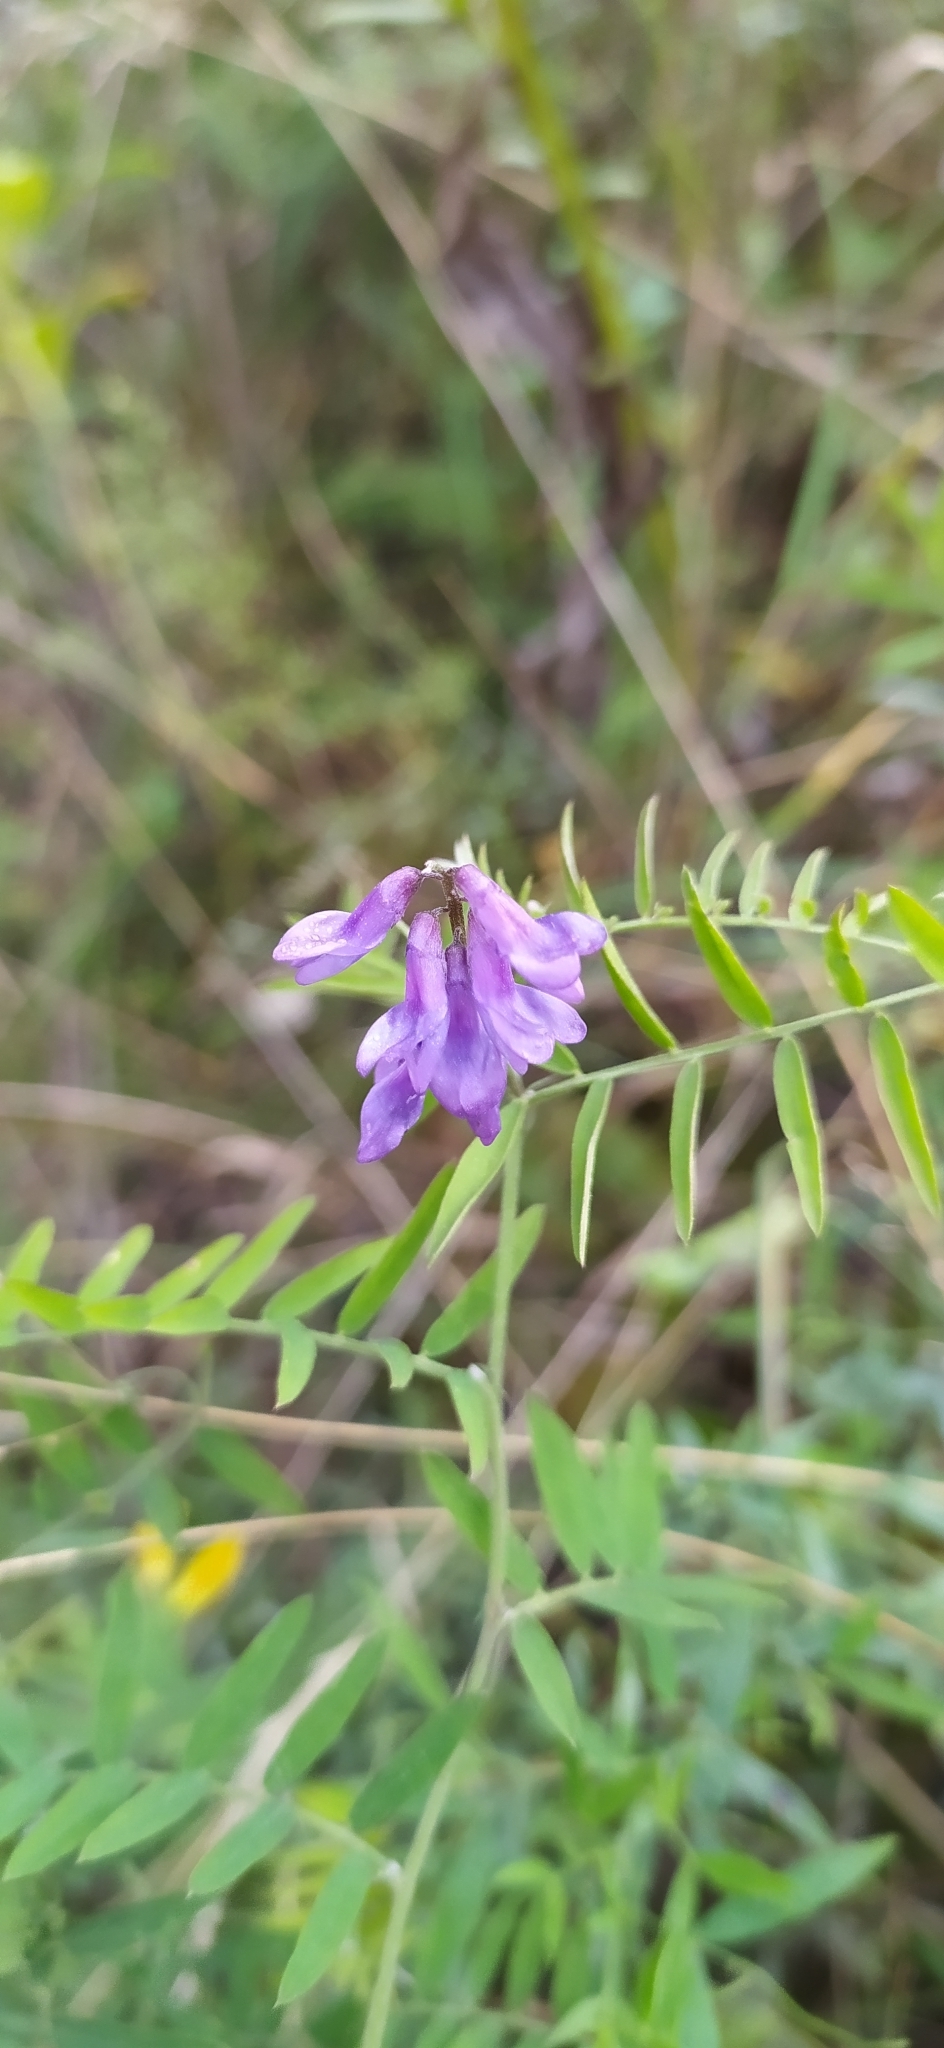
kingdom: Plantae
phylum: Tracheophyta
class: Magnoliopsida
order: Fabales
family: Fabaceae
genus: Vicia
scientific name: Vicia cracca
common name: Bird vetch
